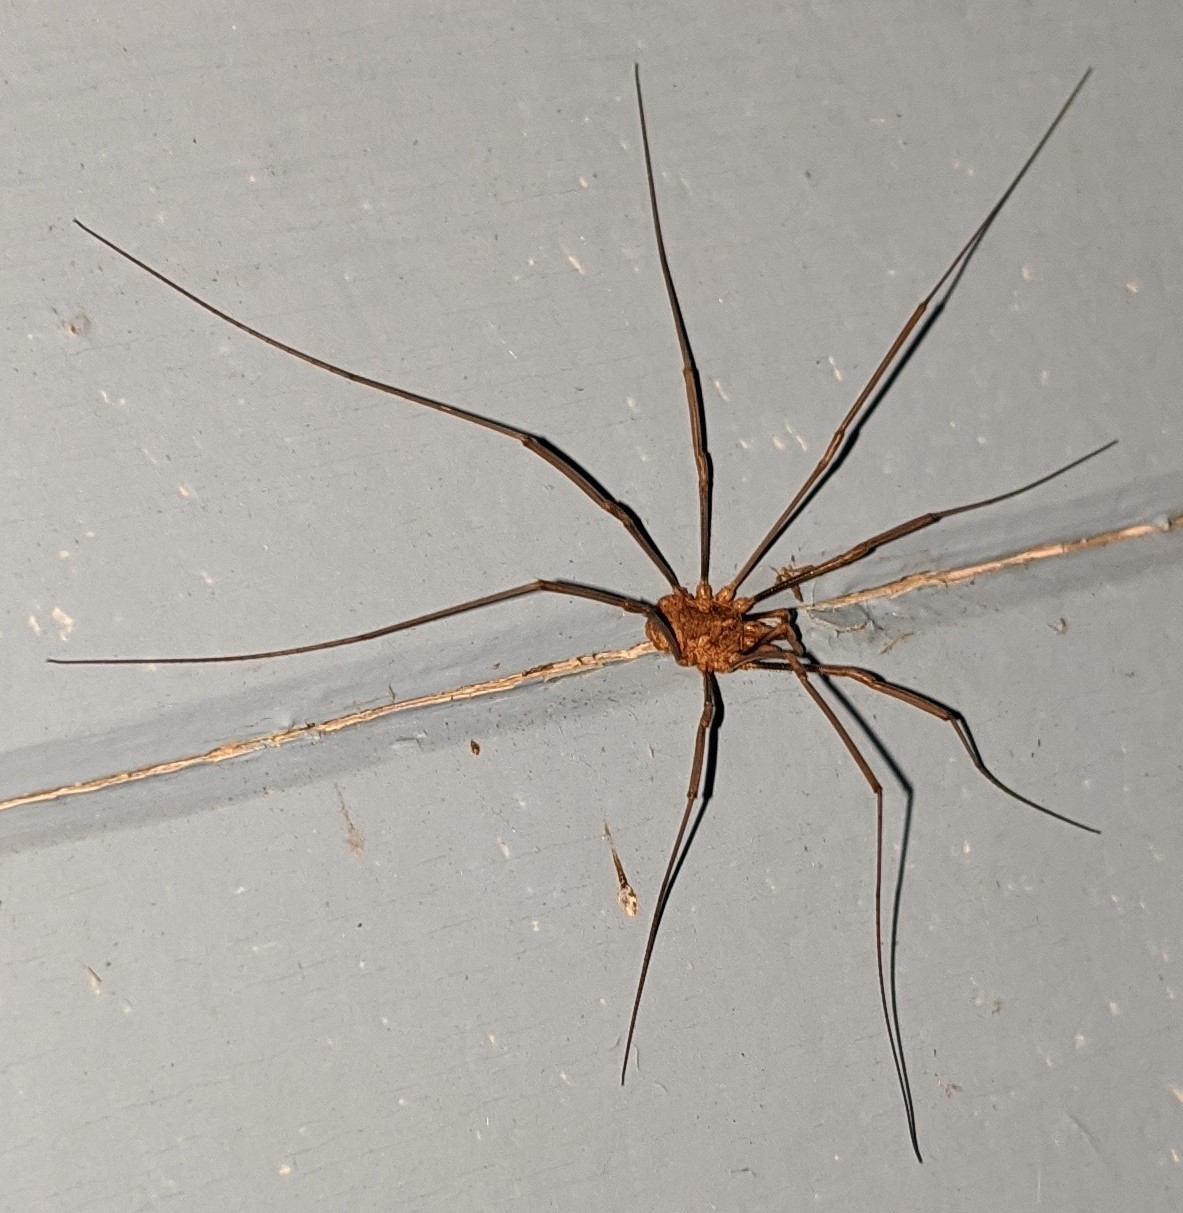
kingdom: Animalia
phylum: Arthropoda
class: Arachnida
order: Opiliones
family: Phalangiidae
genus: Phalangium
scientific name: Phalangium opilio
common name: Daddy longleg
